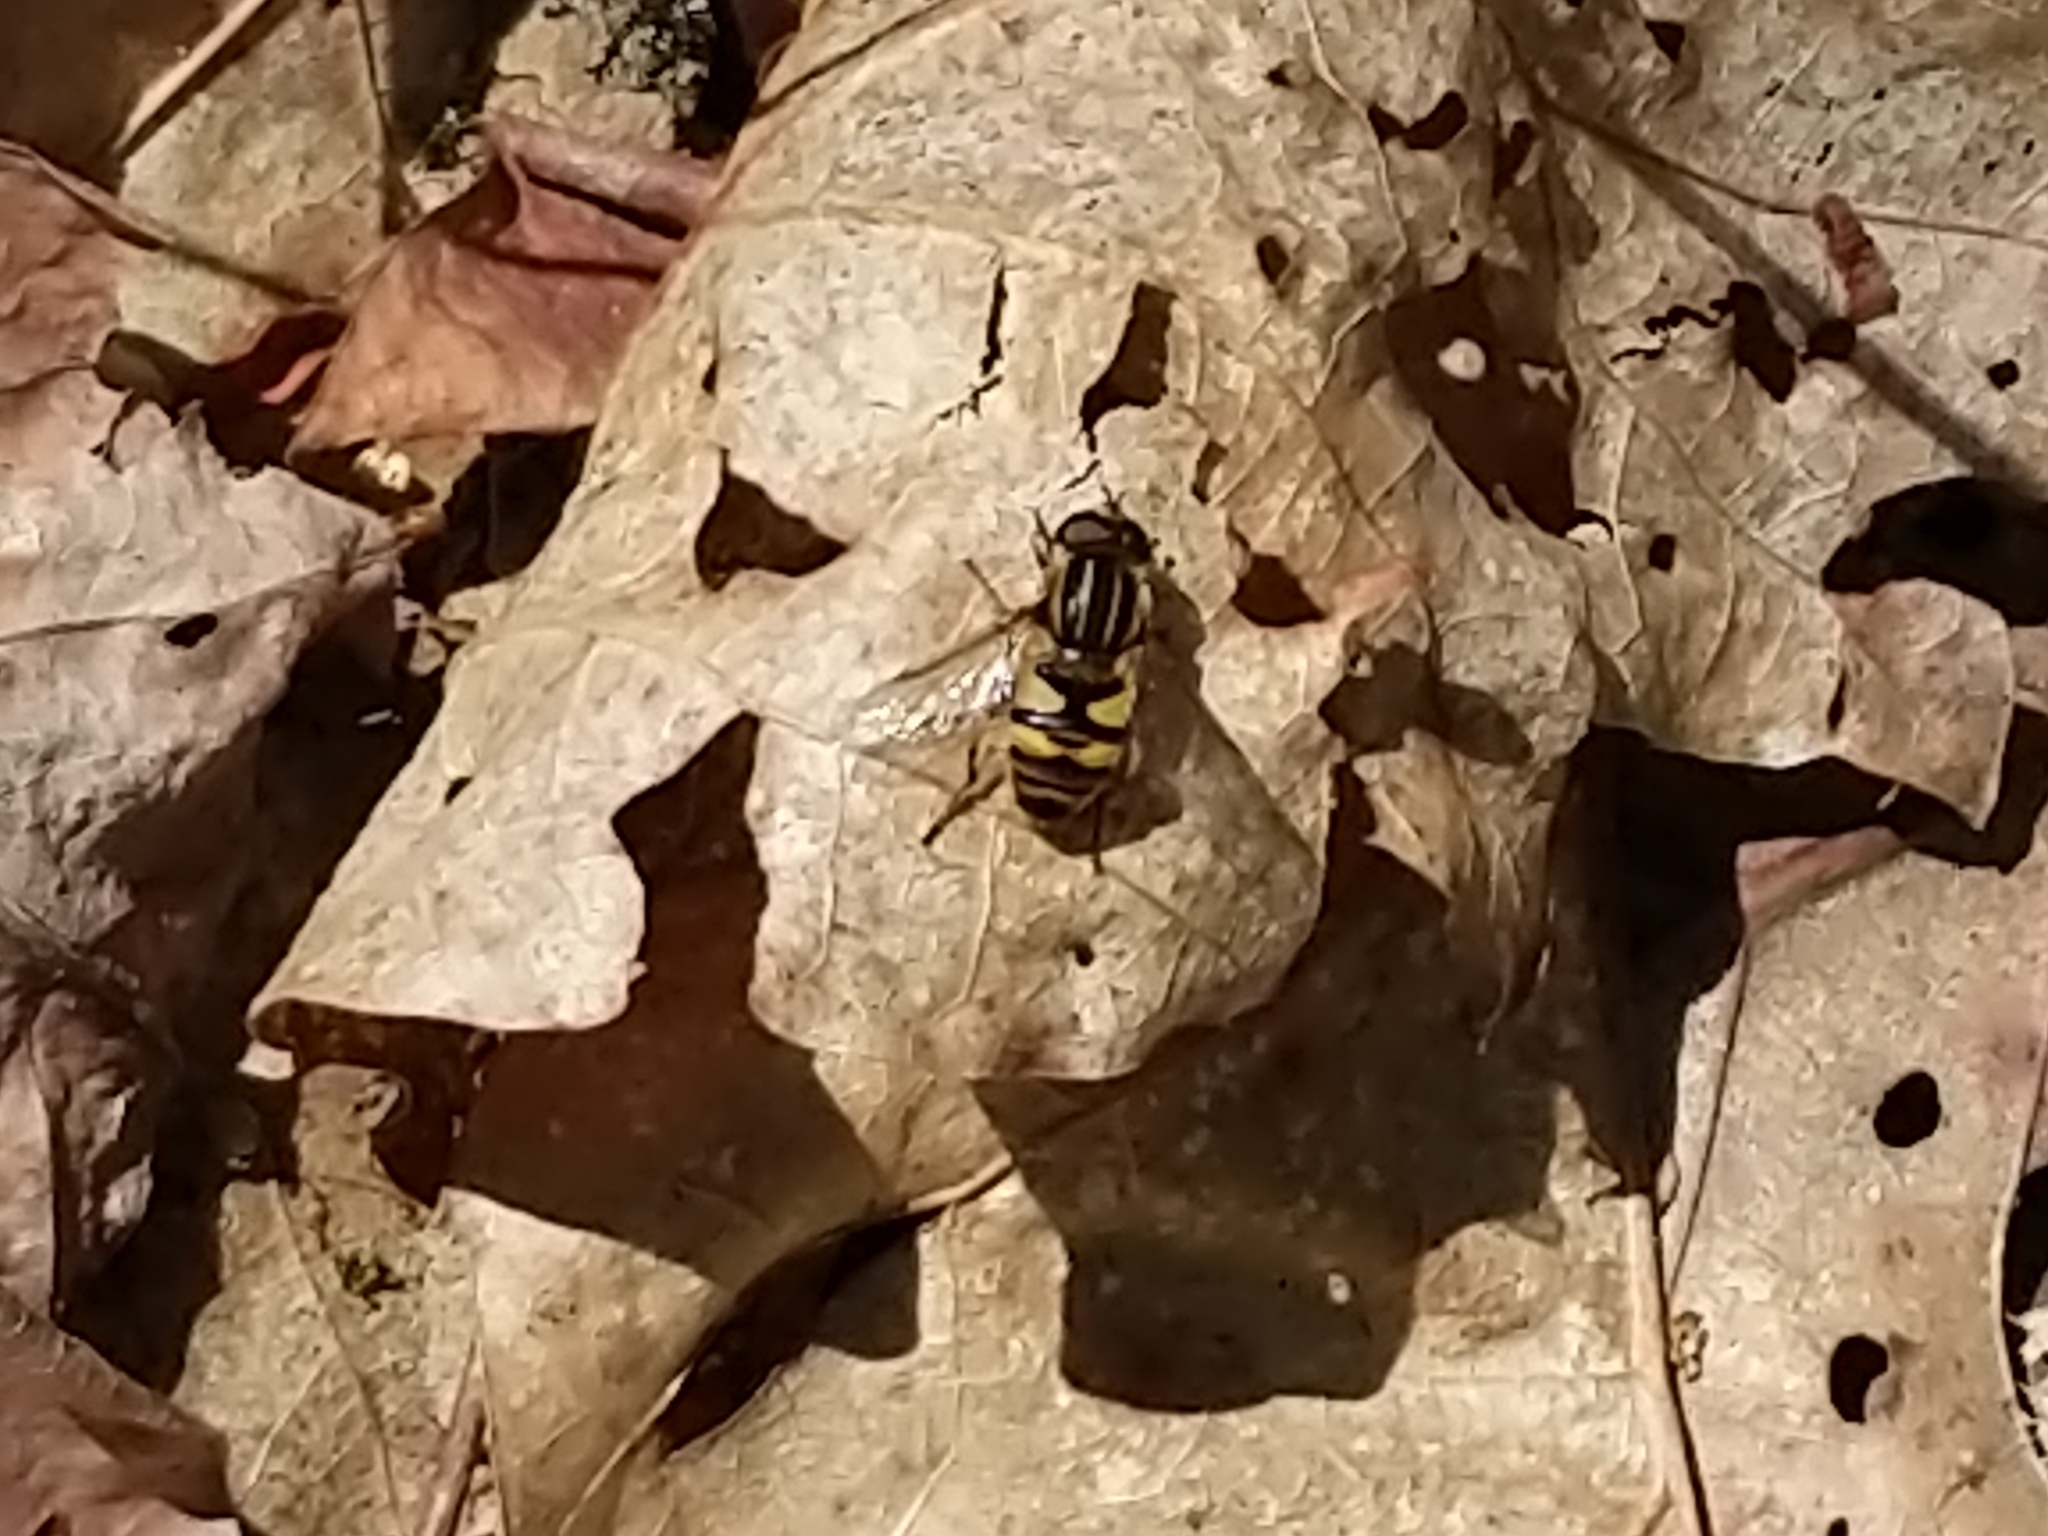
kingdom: Animalia
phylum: Arthropoda
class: Insecta
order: Diptera
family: Syrphidae
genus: Helophilus
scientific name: Helophilus fasciatus
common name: Narrow-headed marsh fly
